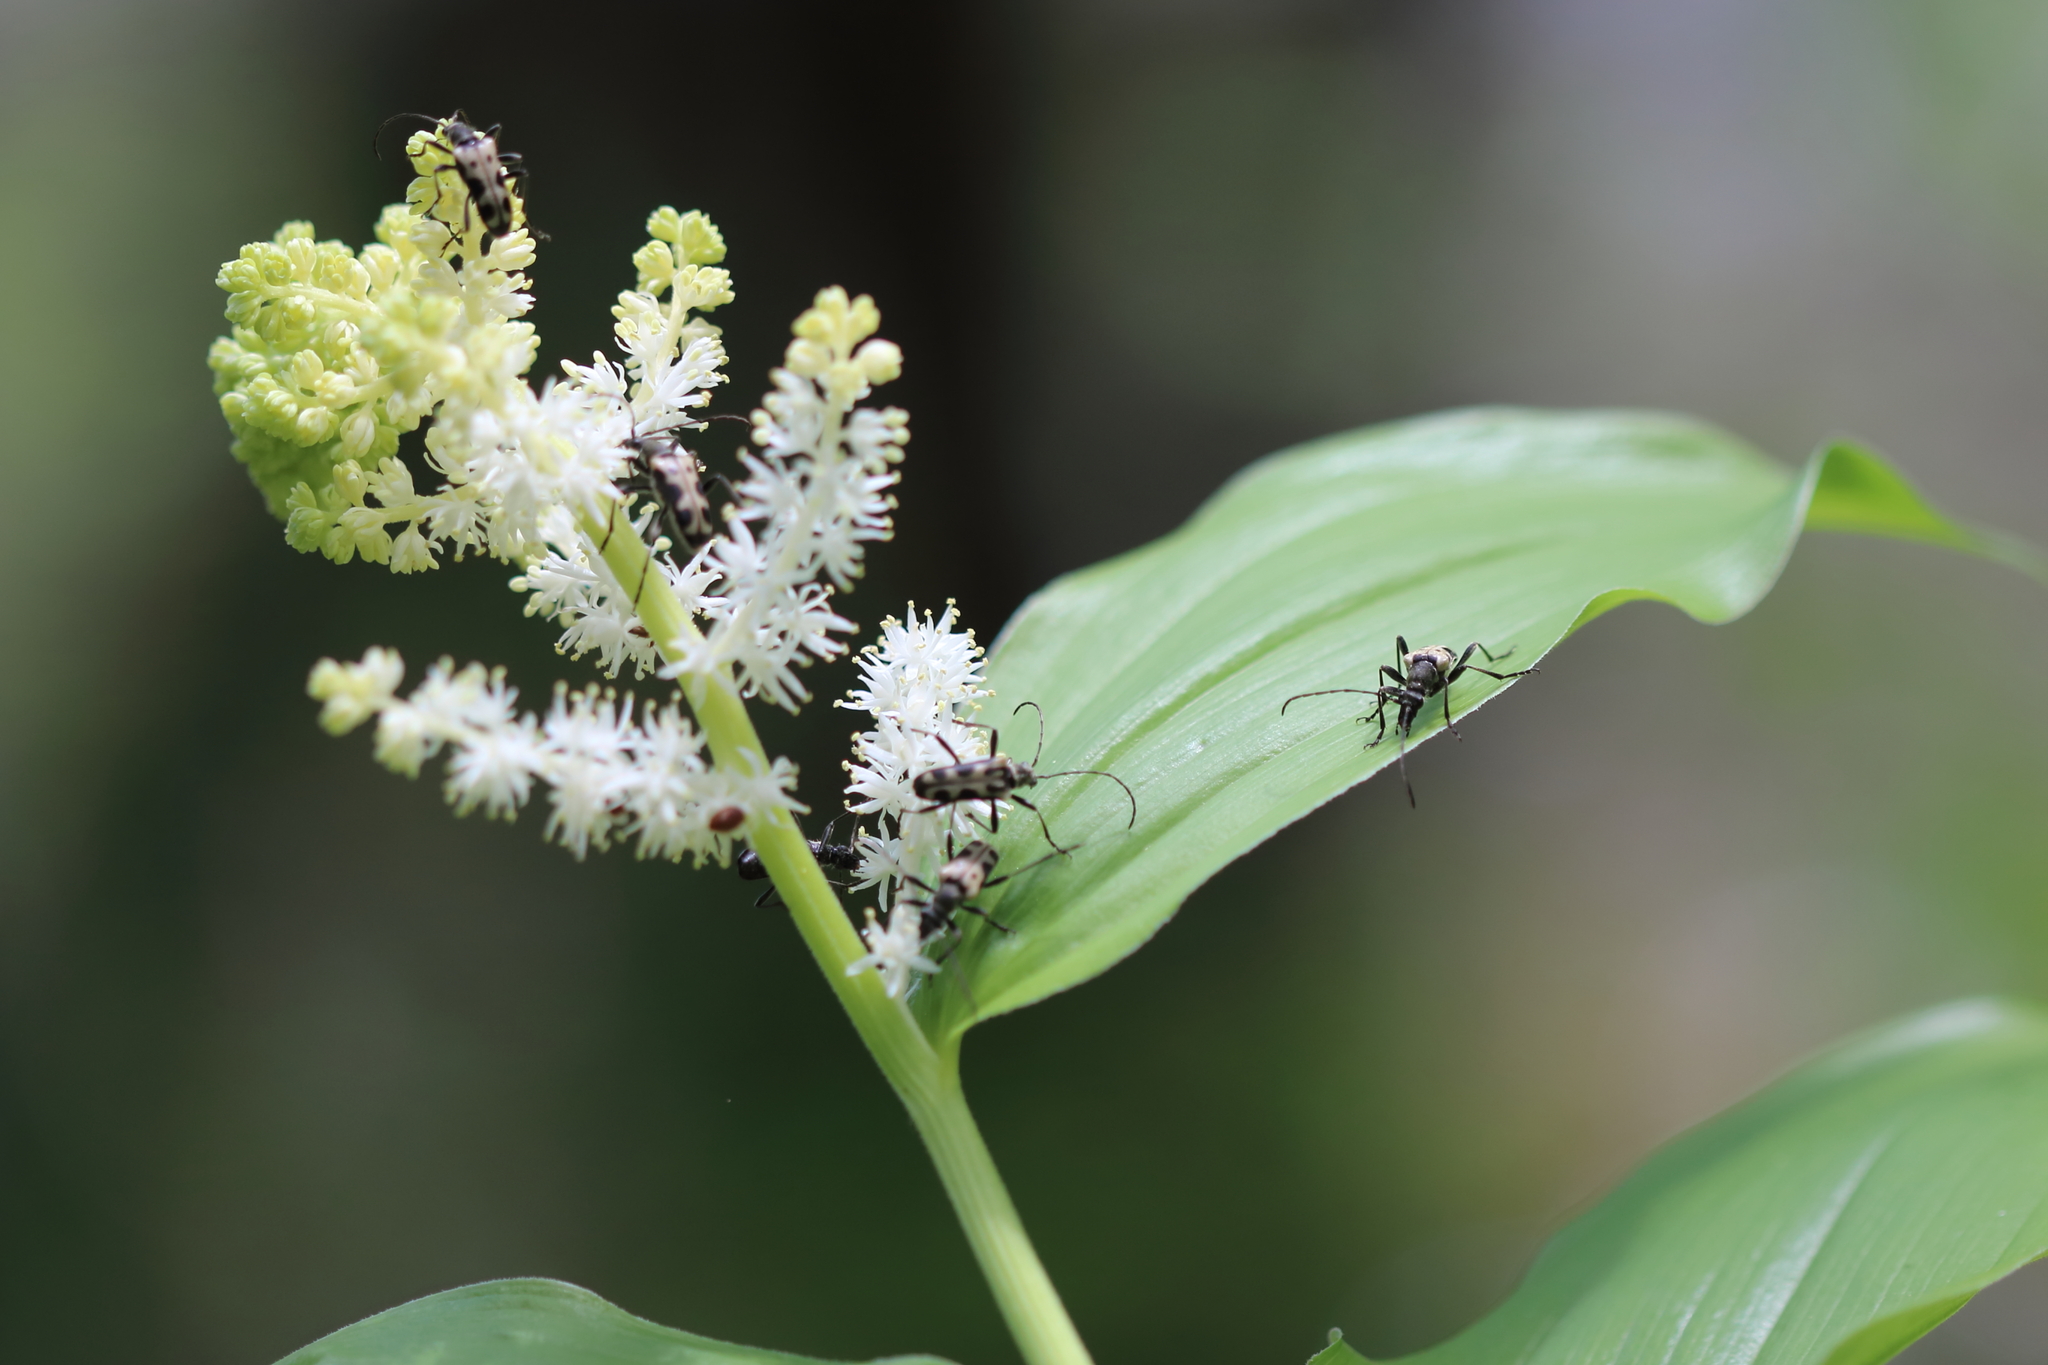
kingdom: Animalia
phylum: Arthropoda
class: Insecta
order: Coleoptera
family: Cerambycidae
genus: Evodinus
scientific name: Evodinus monticola
